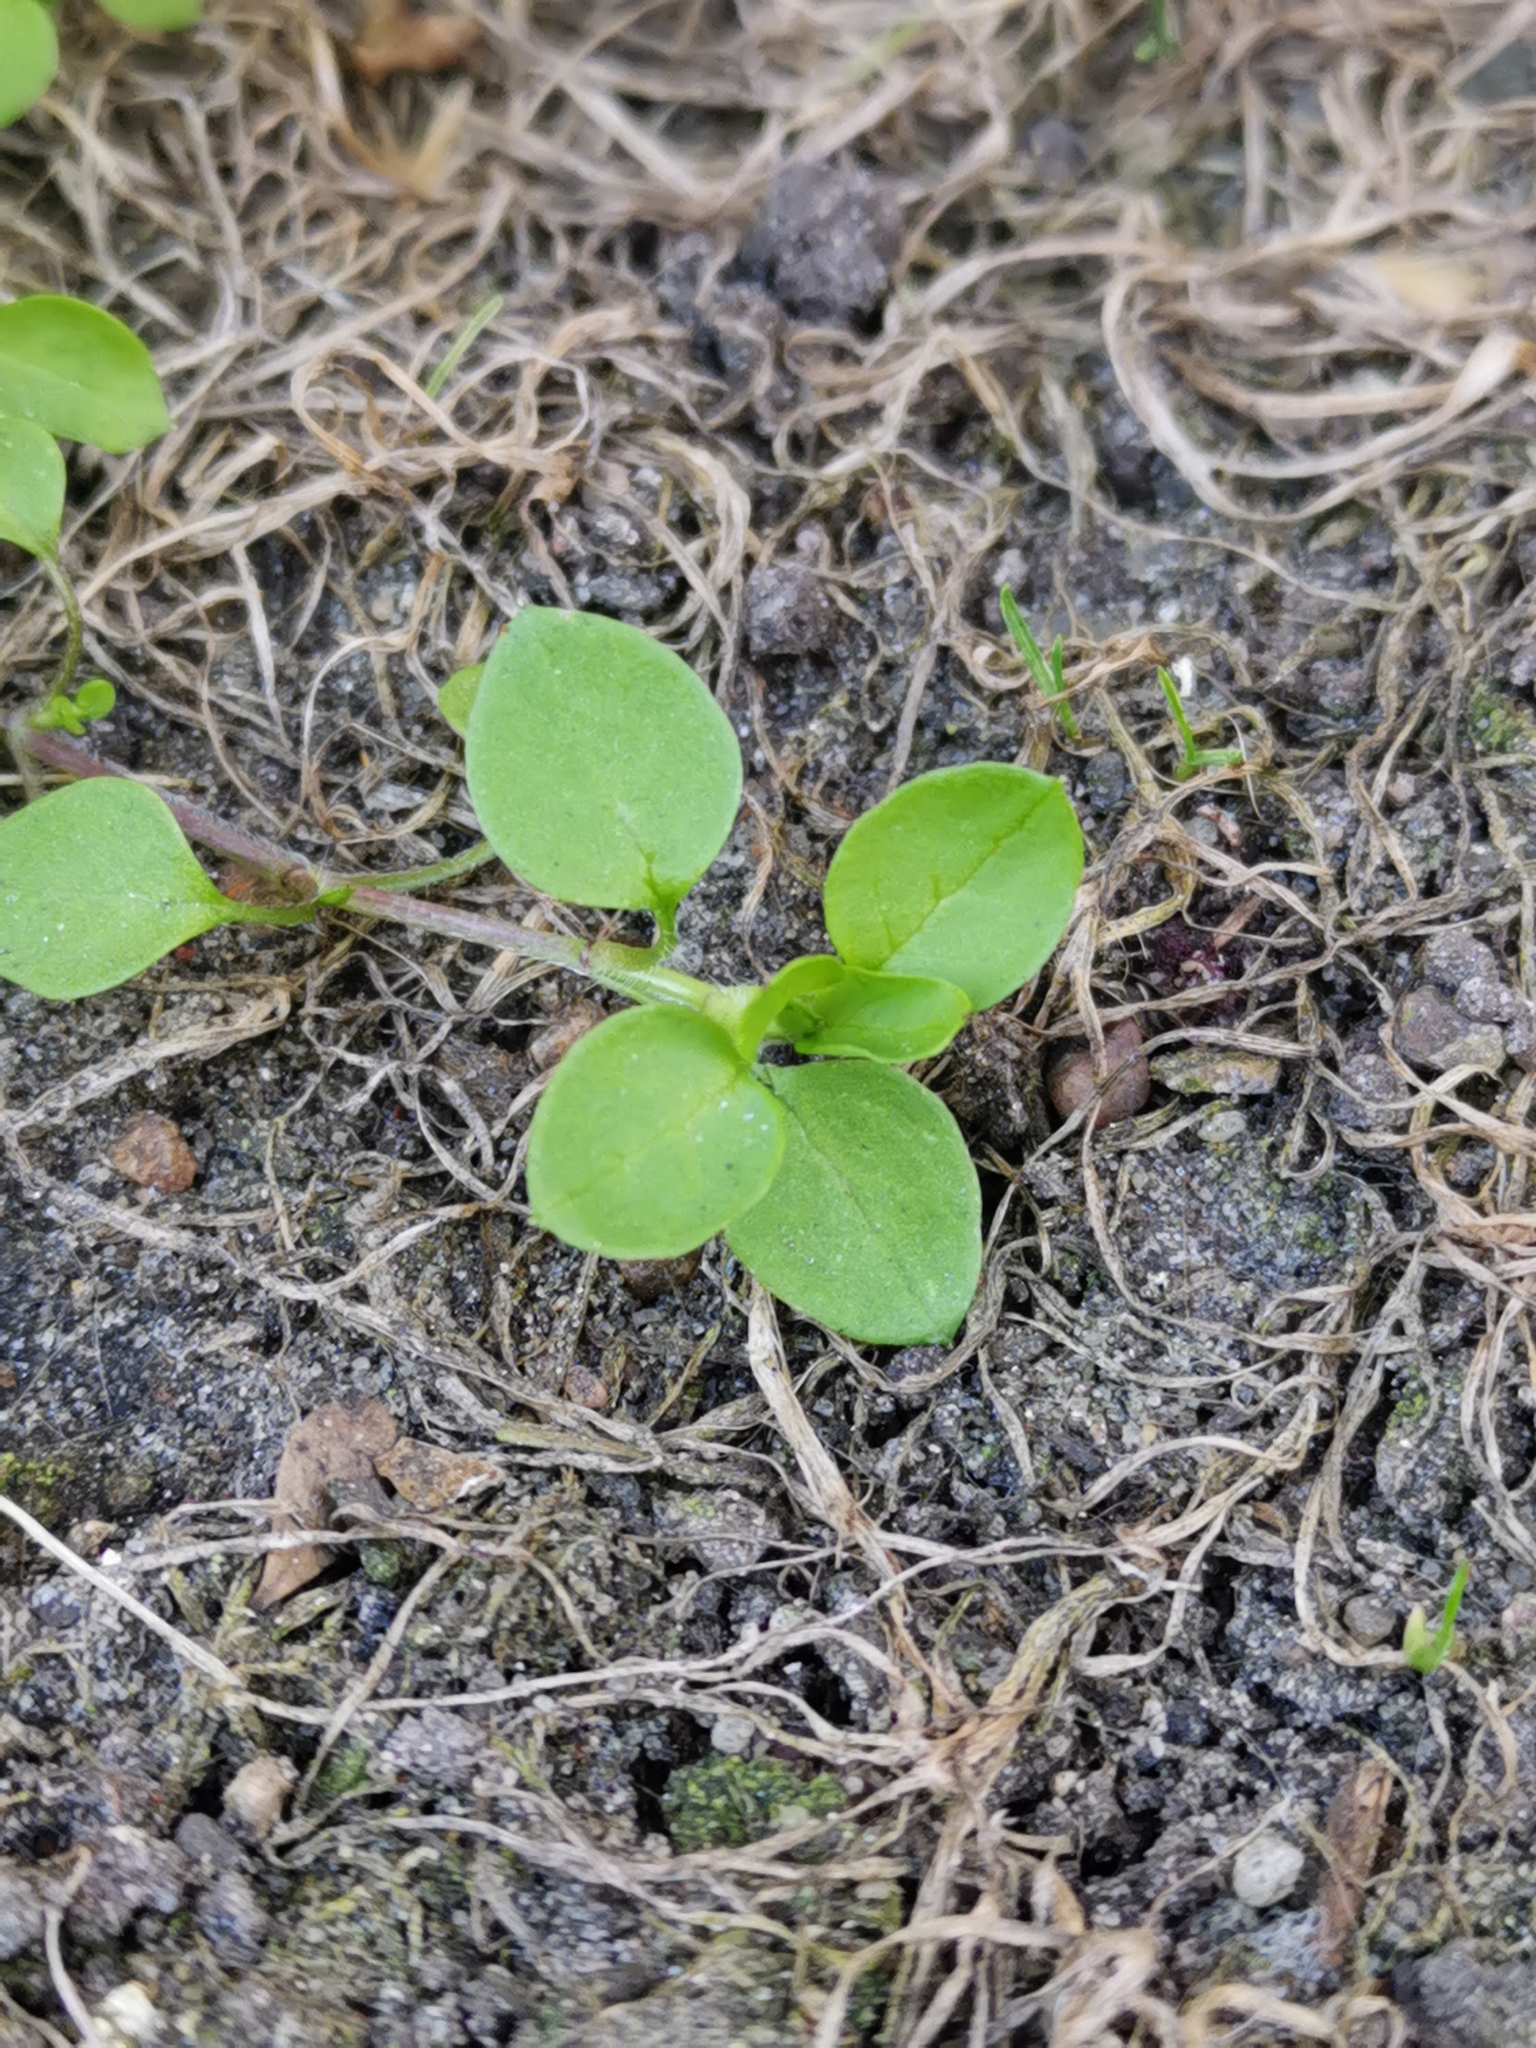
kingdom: Plantae
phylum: Tracheophyta
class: Magnoliopsida
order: Caryophyllales
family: Caryophyllaceae
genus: Stellaria
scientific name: Stellaria media
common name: Common chickweed
